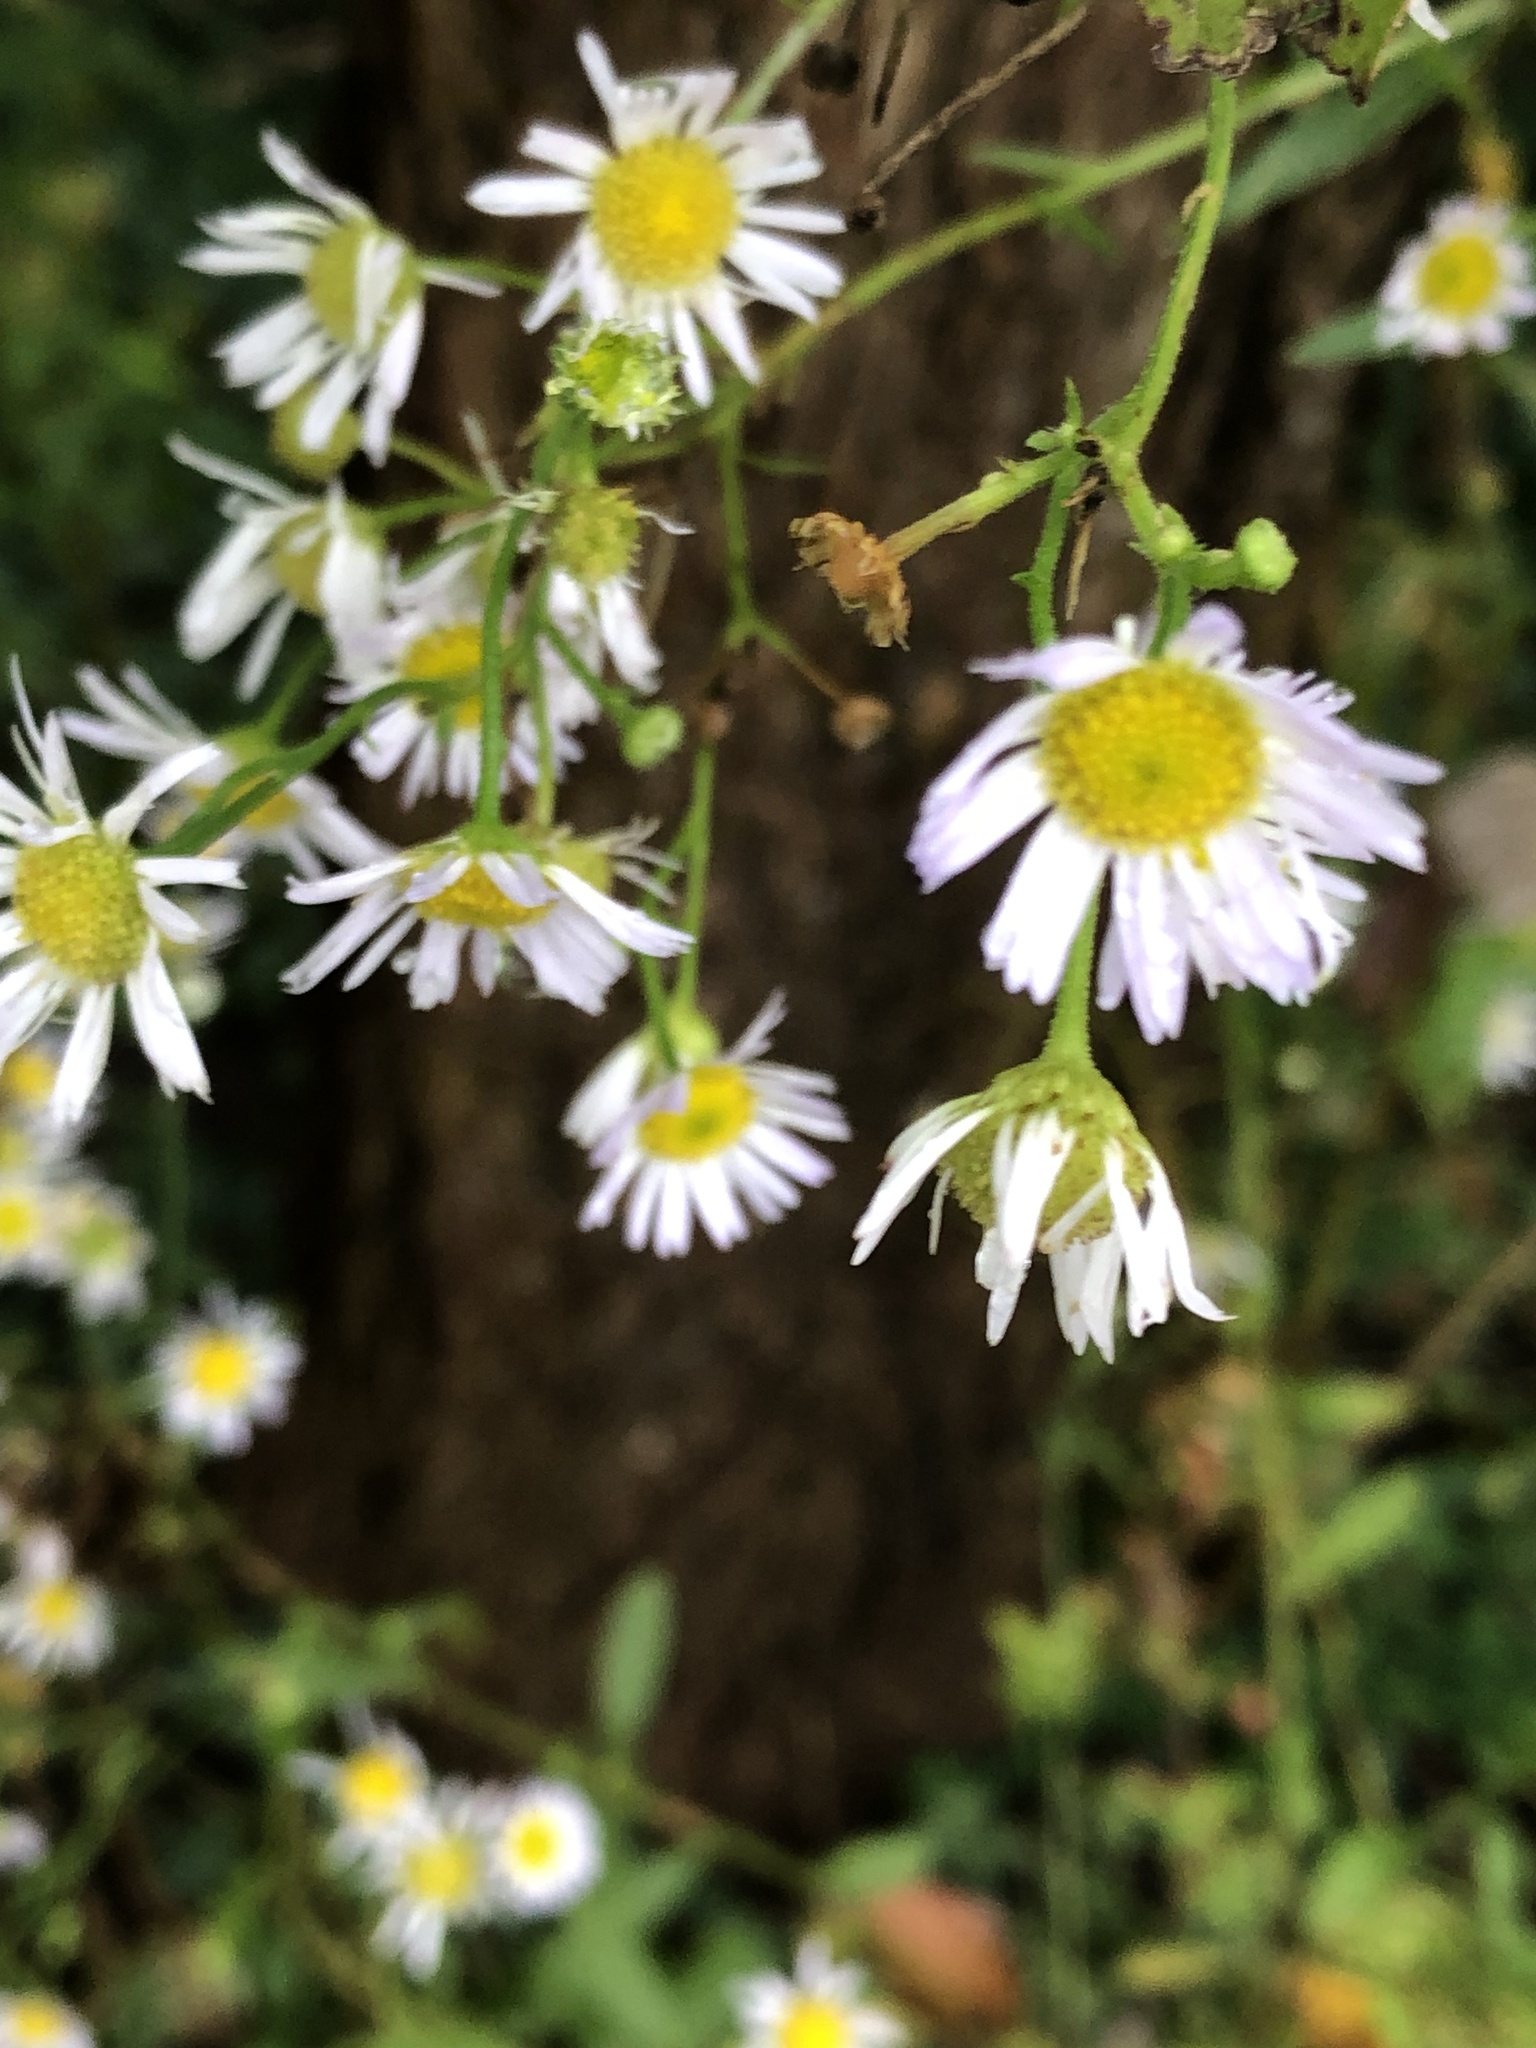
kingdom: Plantae
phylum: Tracheophyta
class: Magnoliopsida
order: Asterales
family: Asteraceae
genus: Erigeron
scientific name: Erigeron annuus
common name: Tall fleabane
